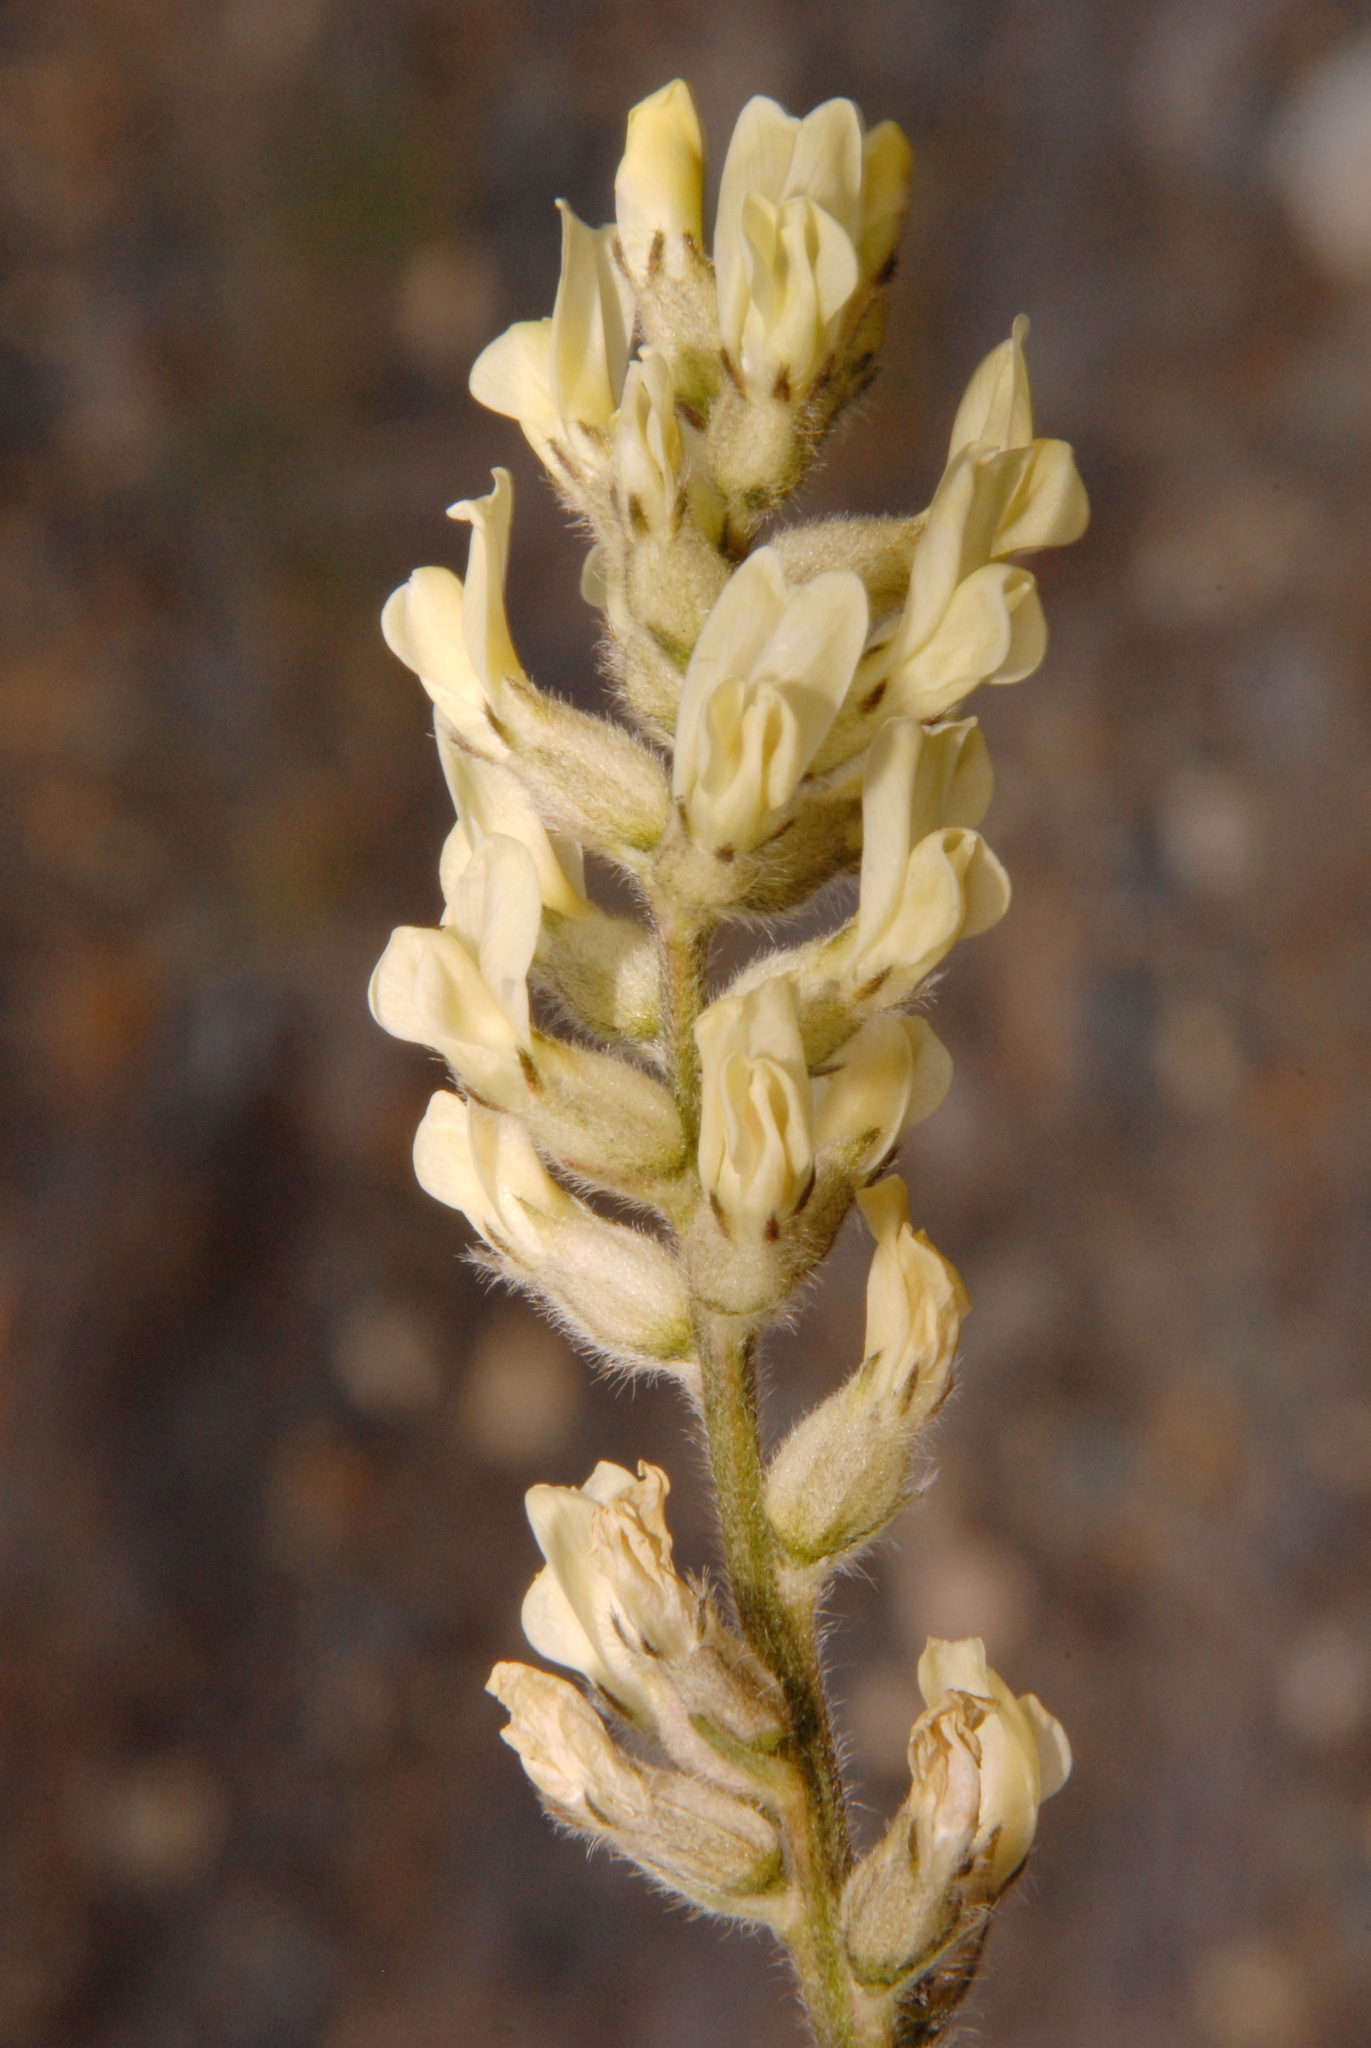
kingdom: Plantae
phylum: Tracheophyta
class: Magnoliopsida
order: Fabales
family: Fabaceae
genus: Oxytropis
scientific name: Oxytropis campestris
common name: Field locoweed
